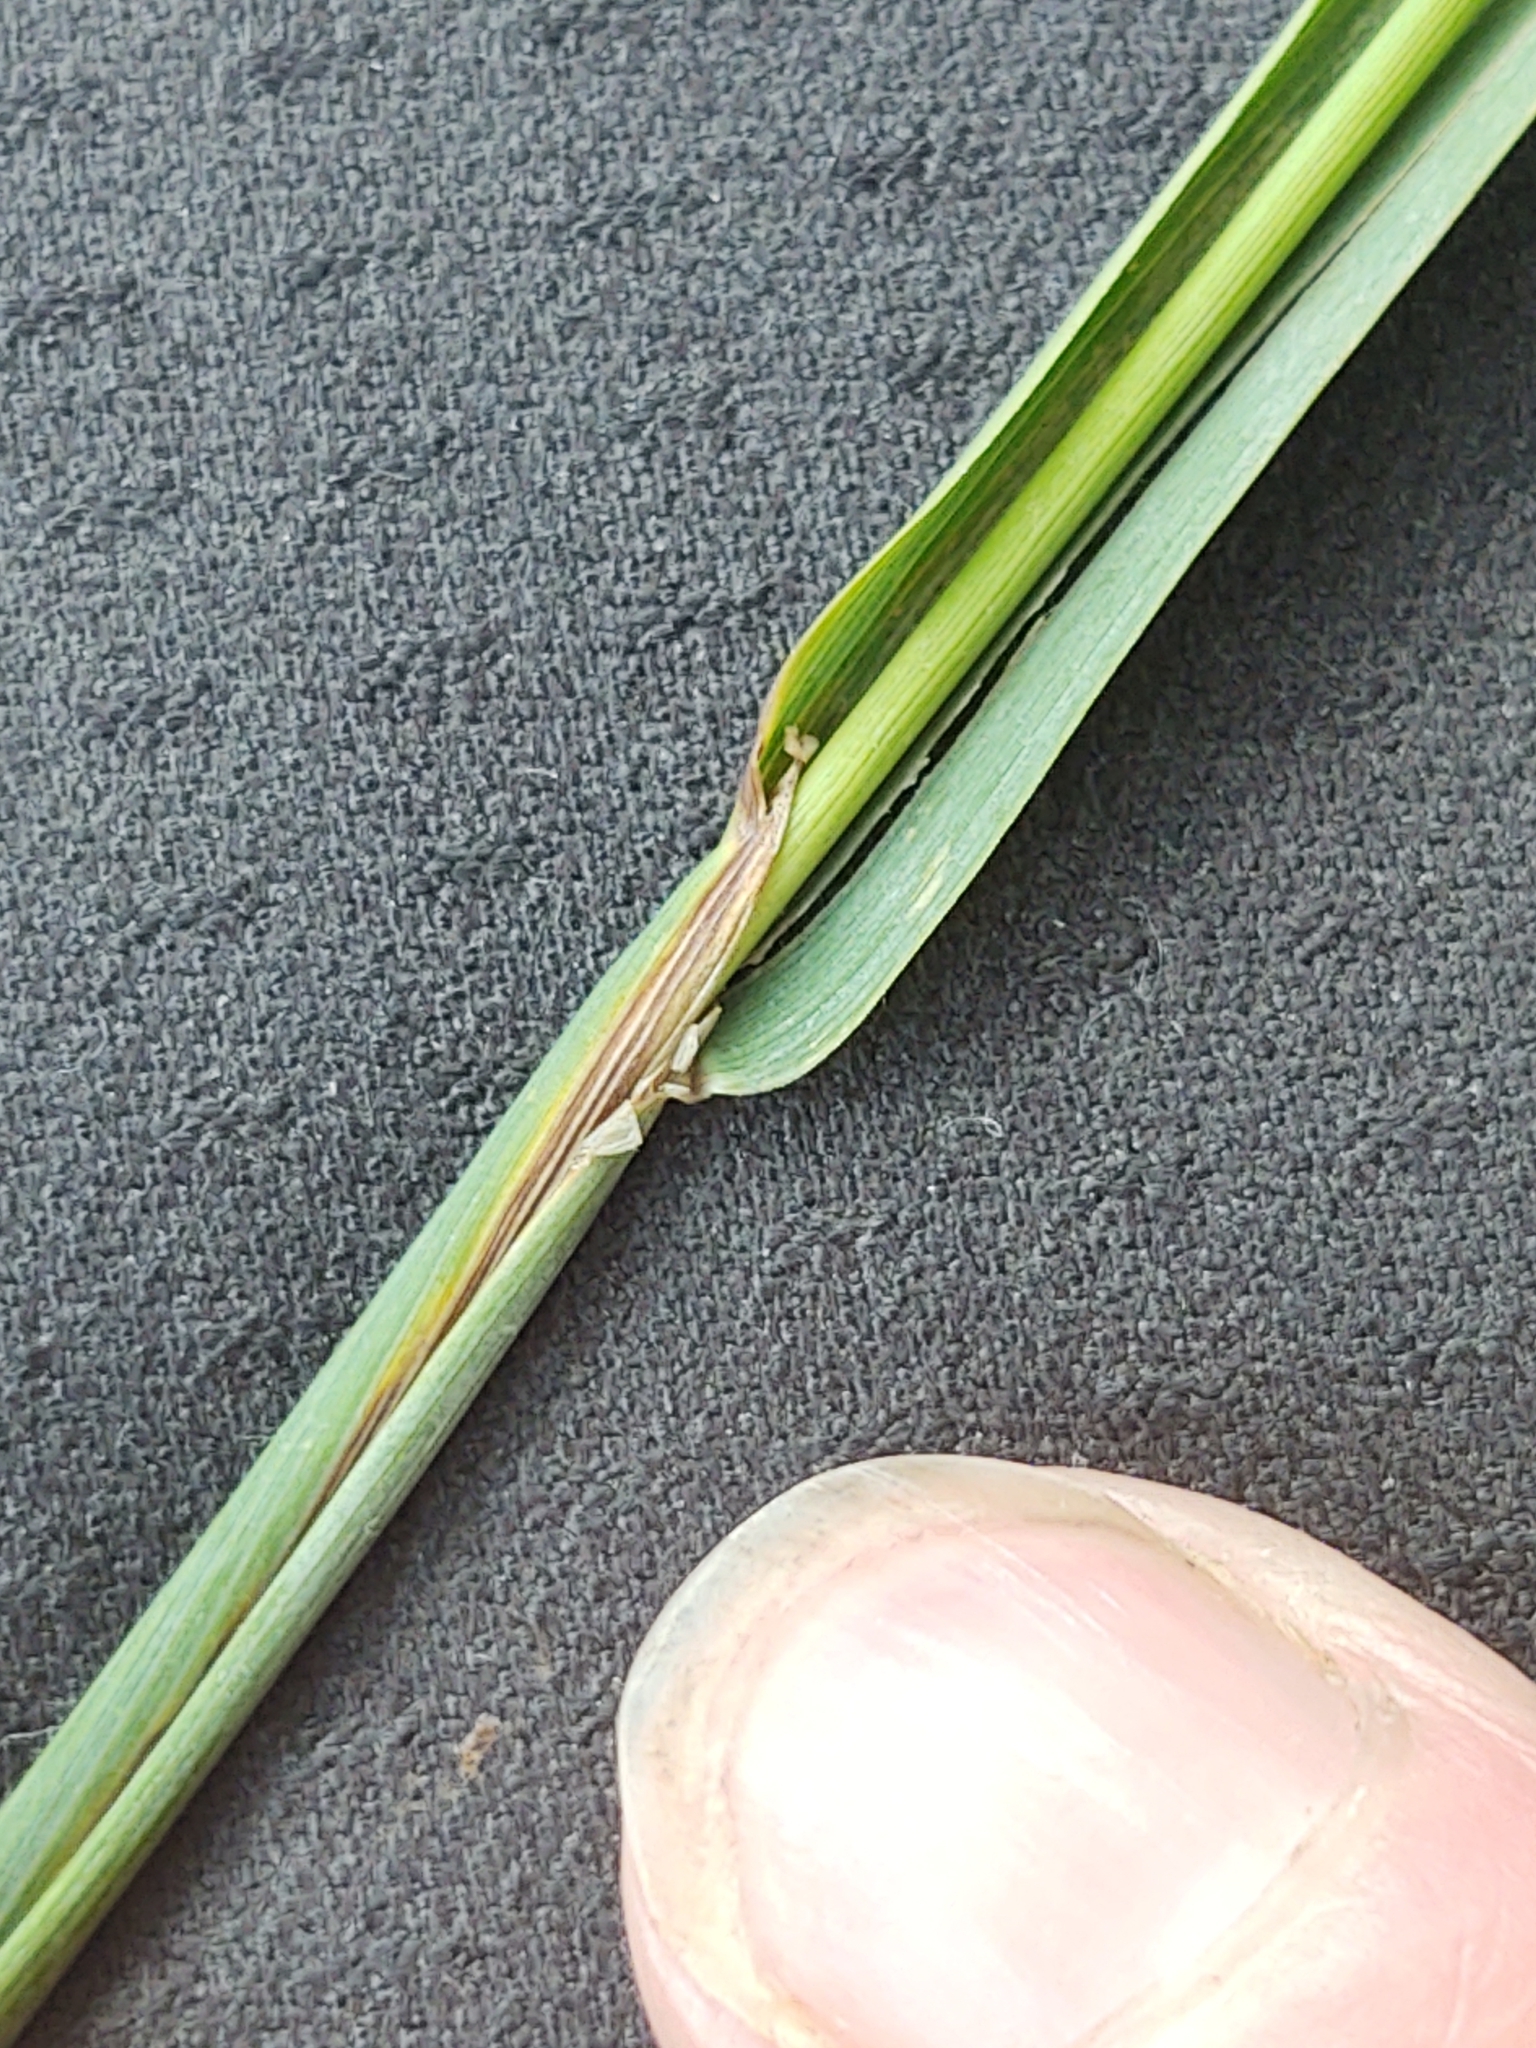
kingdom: Plantae
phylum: Tracheophyta
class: Liliopsida
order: Poales
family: Poaceae
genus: Phleum
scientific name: Phleum pratense
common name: Timothy grass
